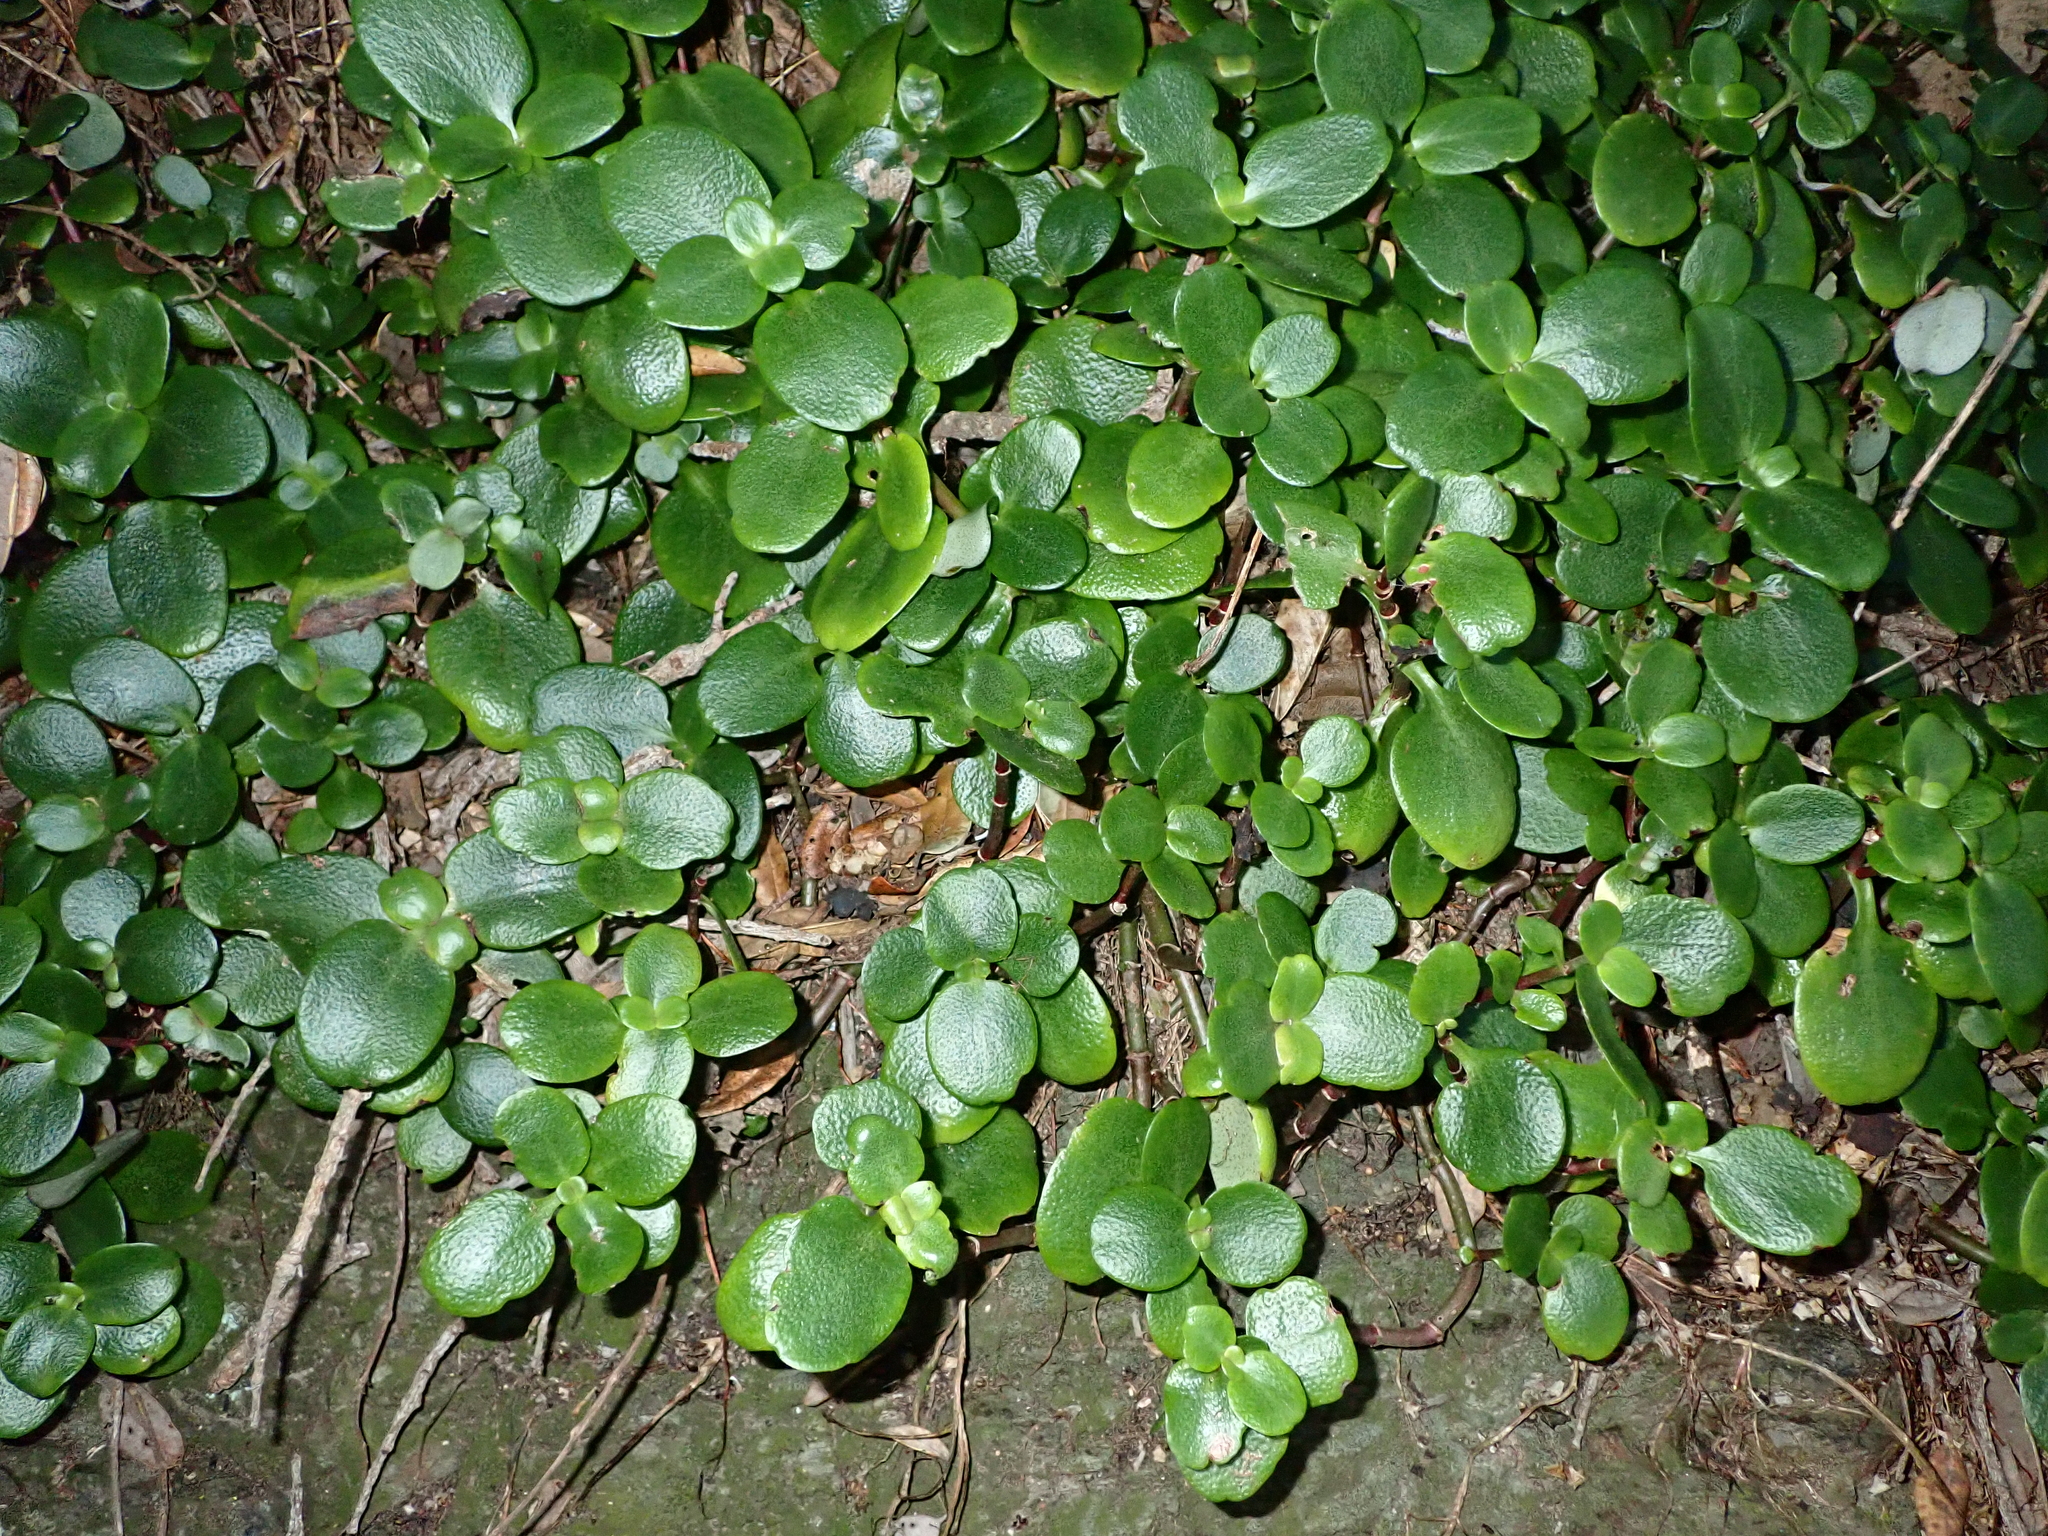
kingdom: Plantae
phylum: Tracheophyta
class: Magnoliopsida
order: Saxifragales
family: Crassulaceae
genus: Crassula
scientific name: Crassula multicava
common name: Cape province pygmyweed
